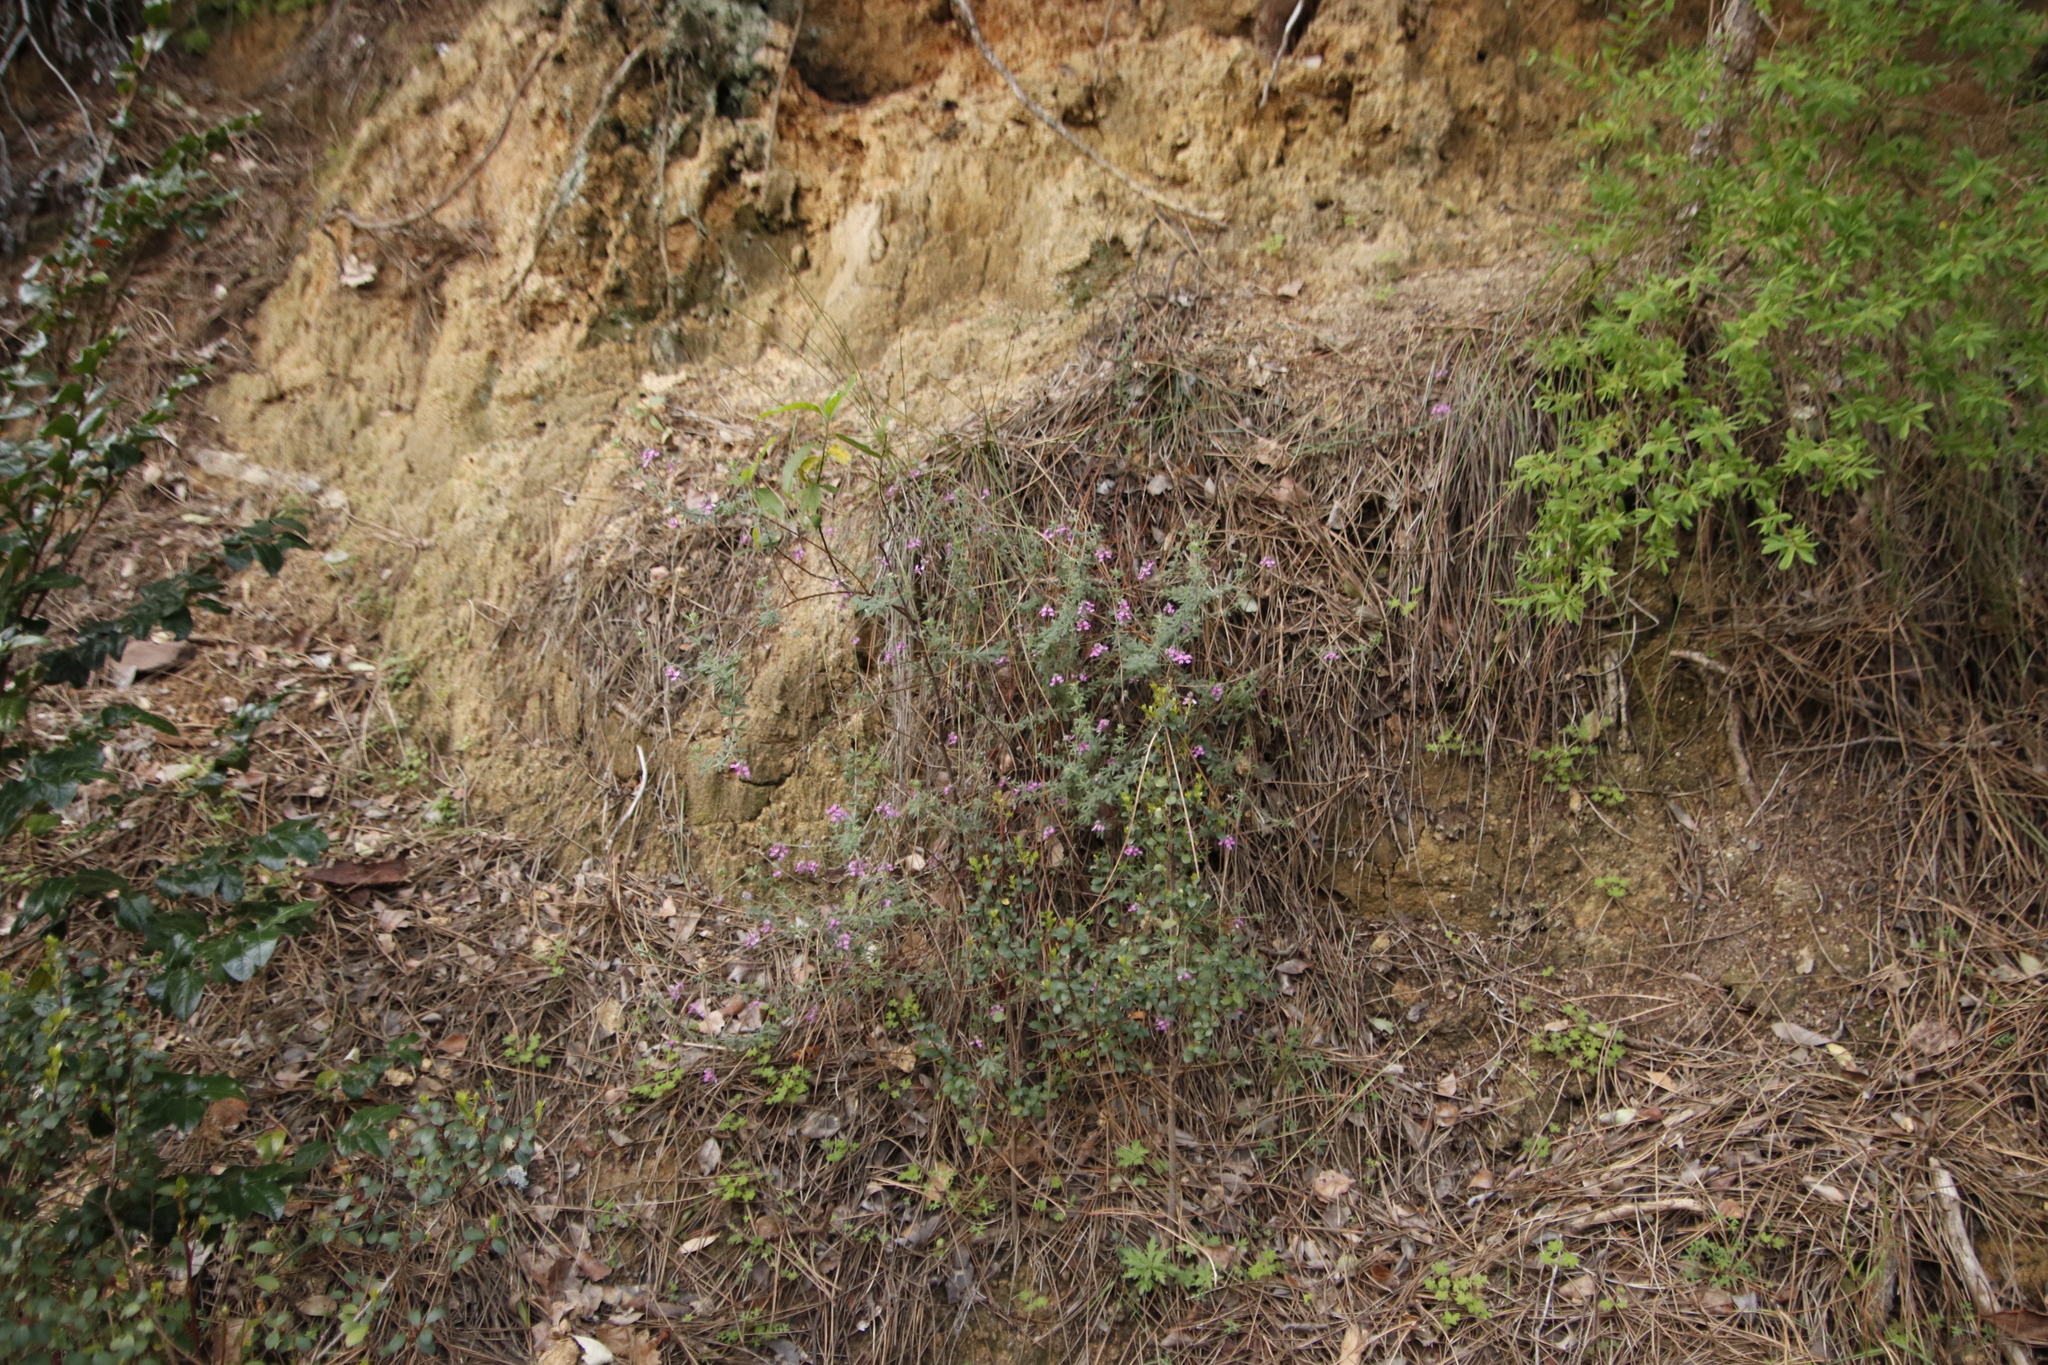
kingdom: Plantae
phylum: Tracheophyta
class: Magnoliopsida
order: Fabales
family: Fabaceae
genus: Indigofera
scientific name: Indigofera filiformis
